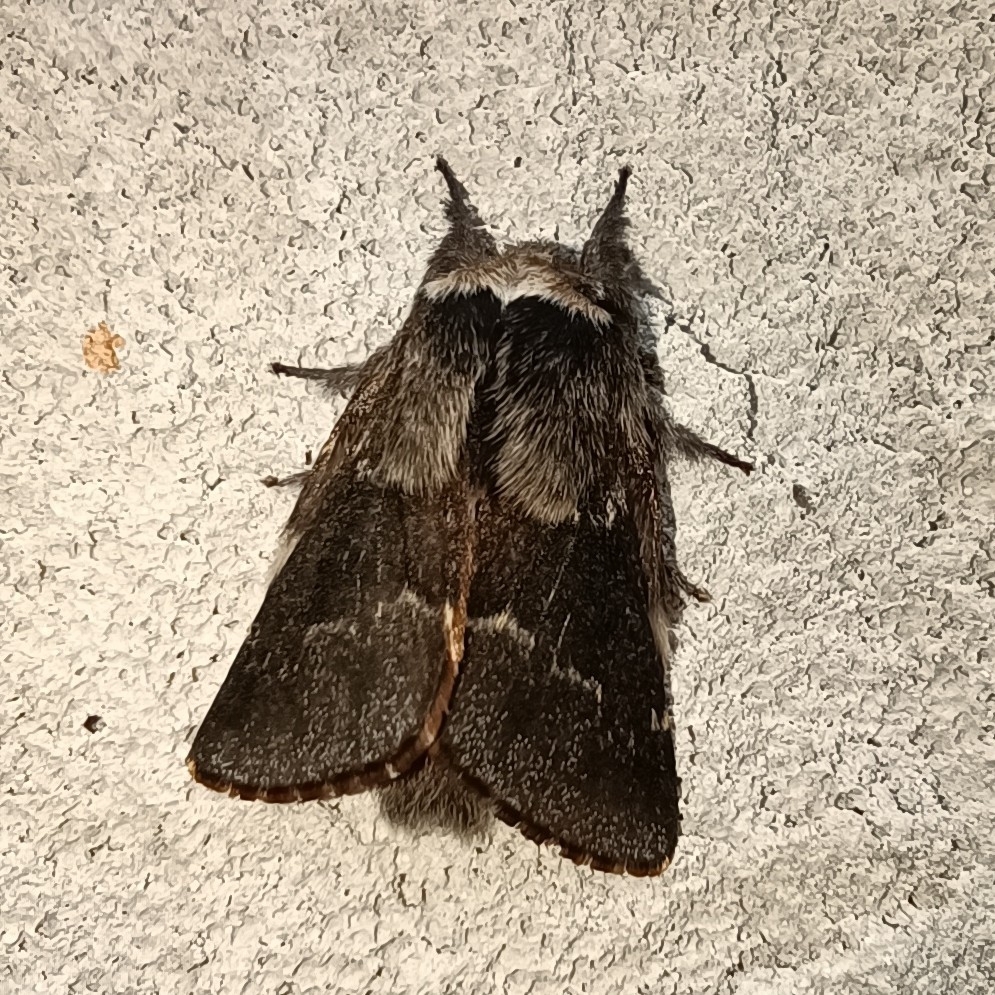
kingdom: Animalia
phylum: Arthropoda
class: Insecta
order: Lepidoptera
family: Lasiocampidae
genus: Poecilocampa
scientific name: Poecilocampa populi
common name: December moth
